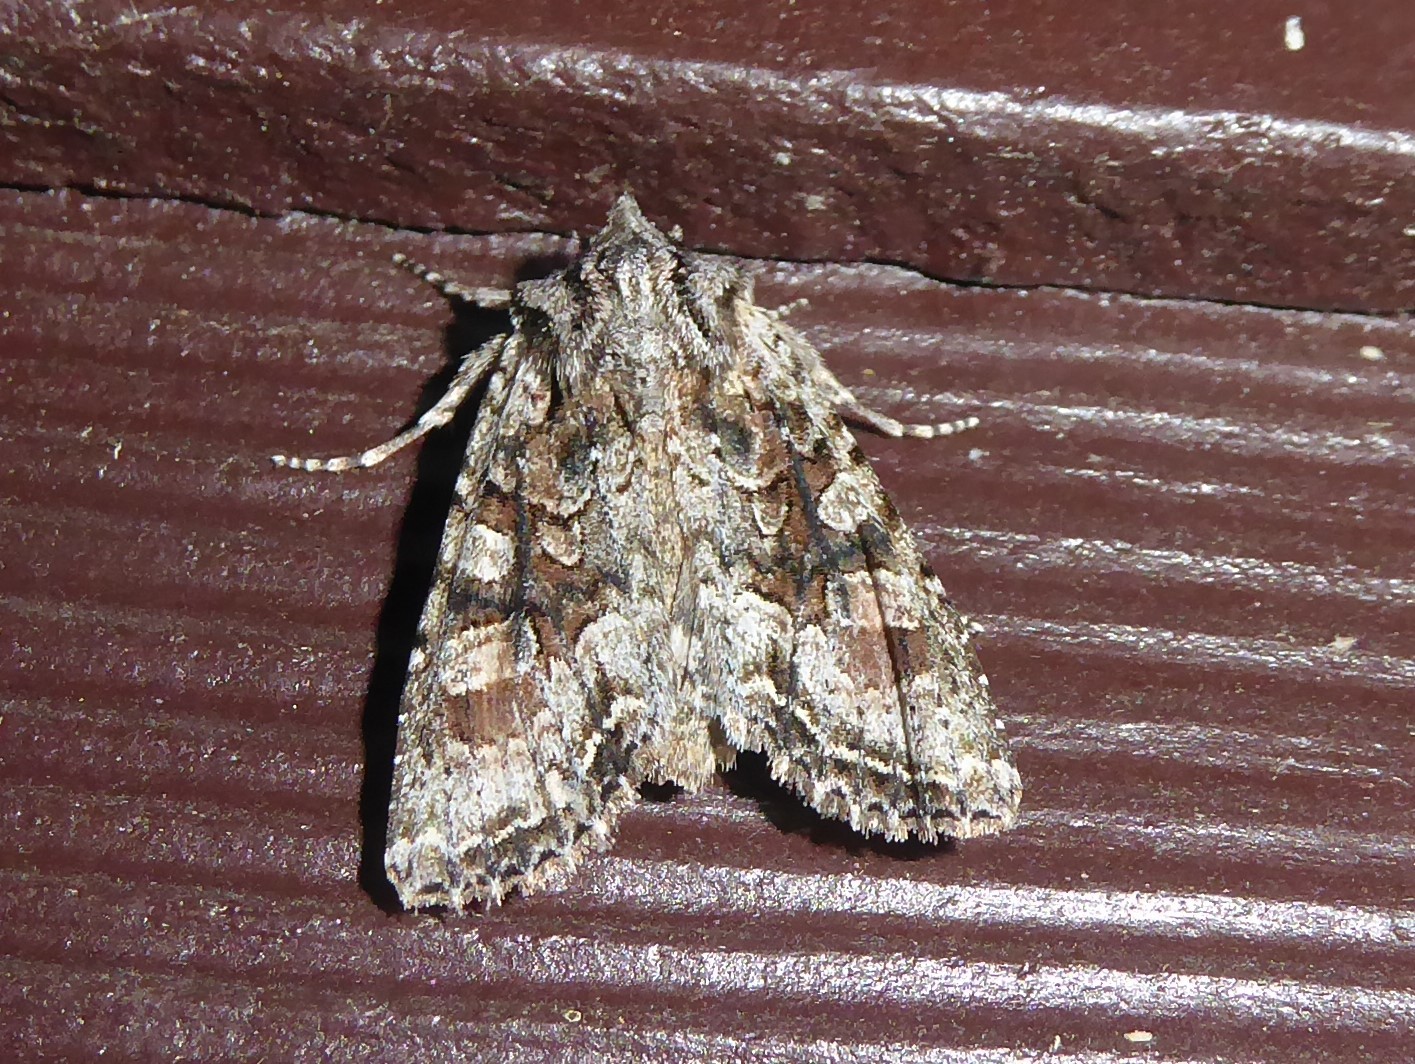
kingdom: Animalia
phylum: Arthropoda
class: Insecta
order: Lepidoptera
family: Noctuidae
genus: Ichneutica
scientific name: Ichneutica mutans
